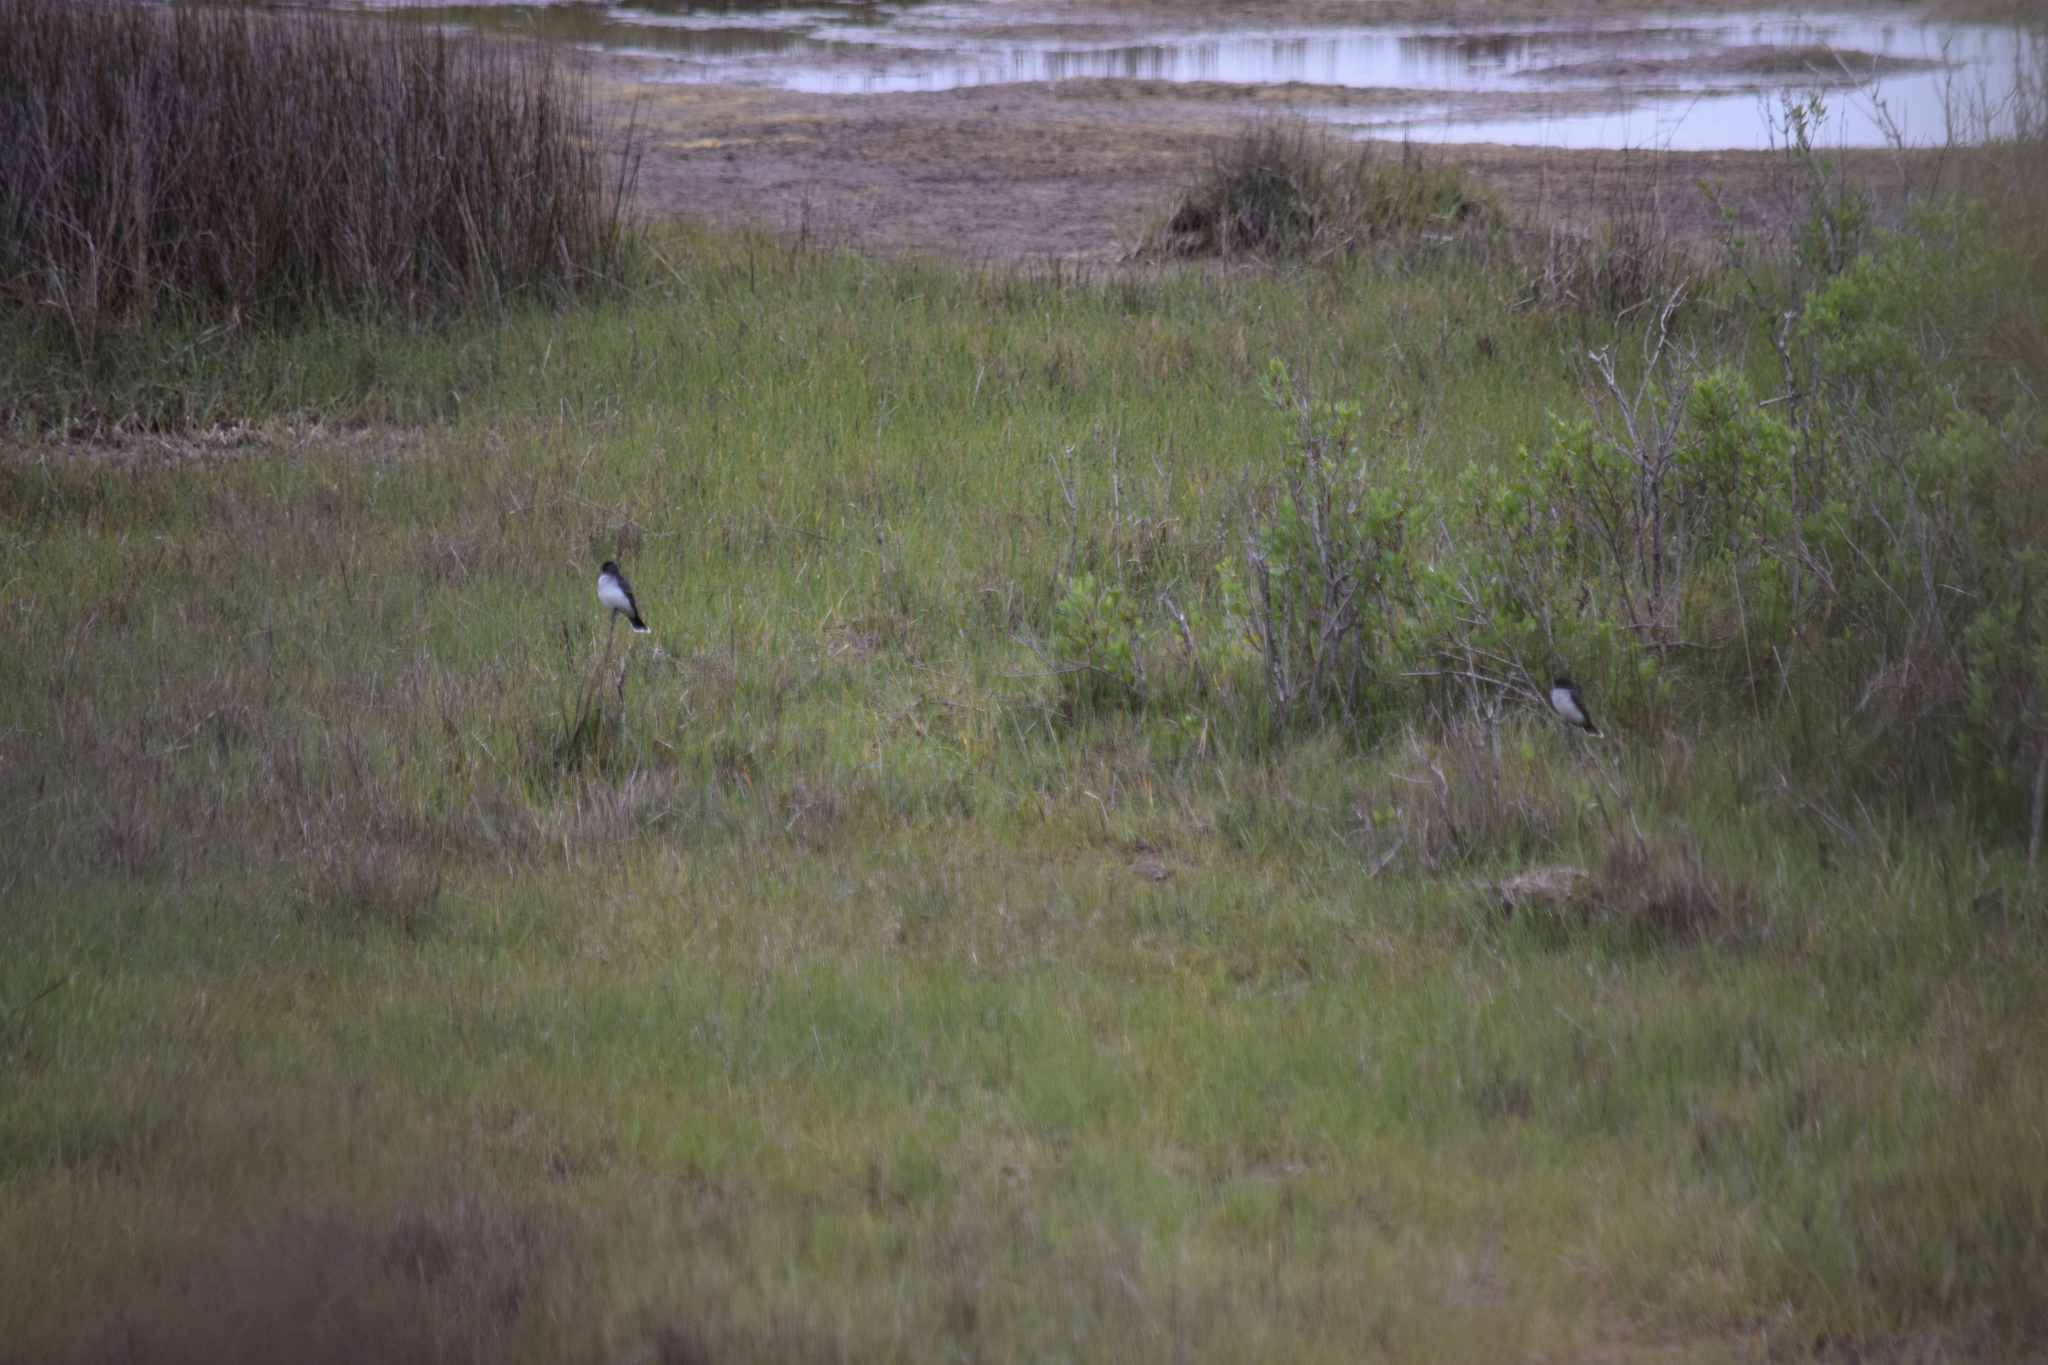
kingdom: Animalia
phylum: Chordata
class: Aves
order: Passeriformes
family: Tyrannidae
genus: Tyrannus
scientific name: Tyrannus tyrannus
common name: Eastern kingbird
